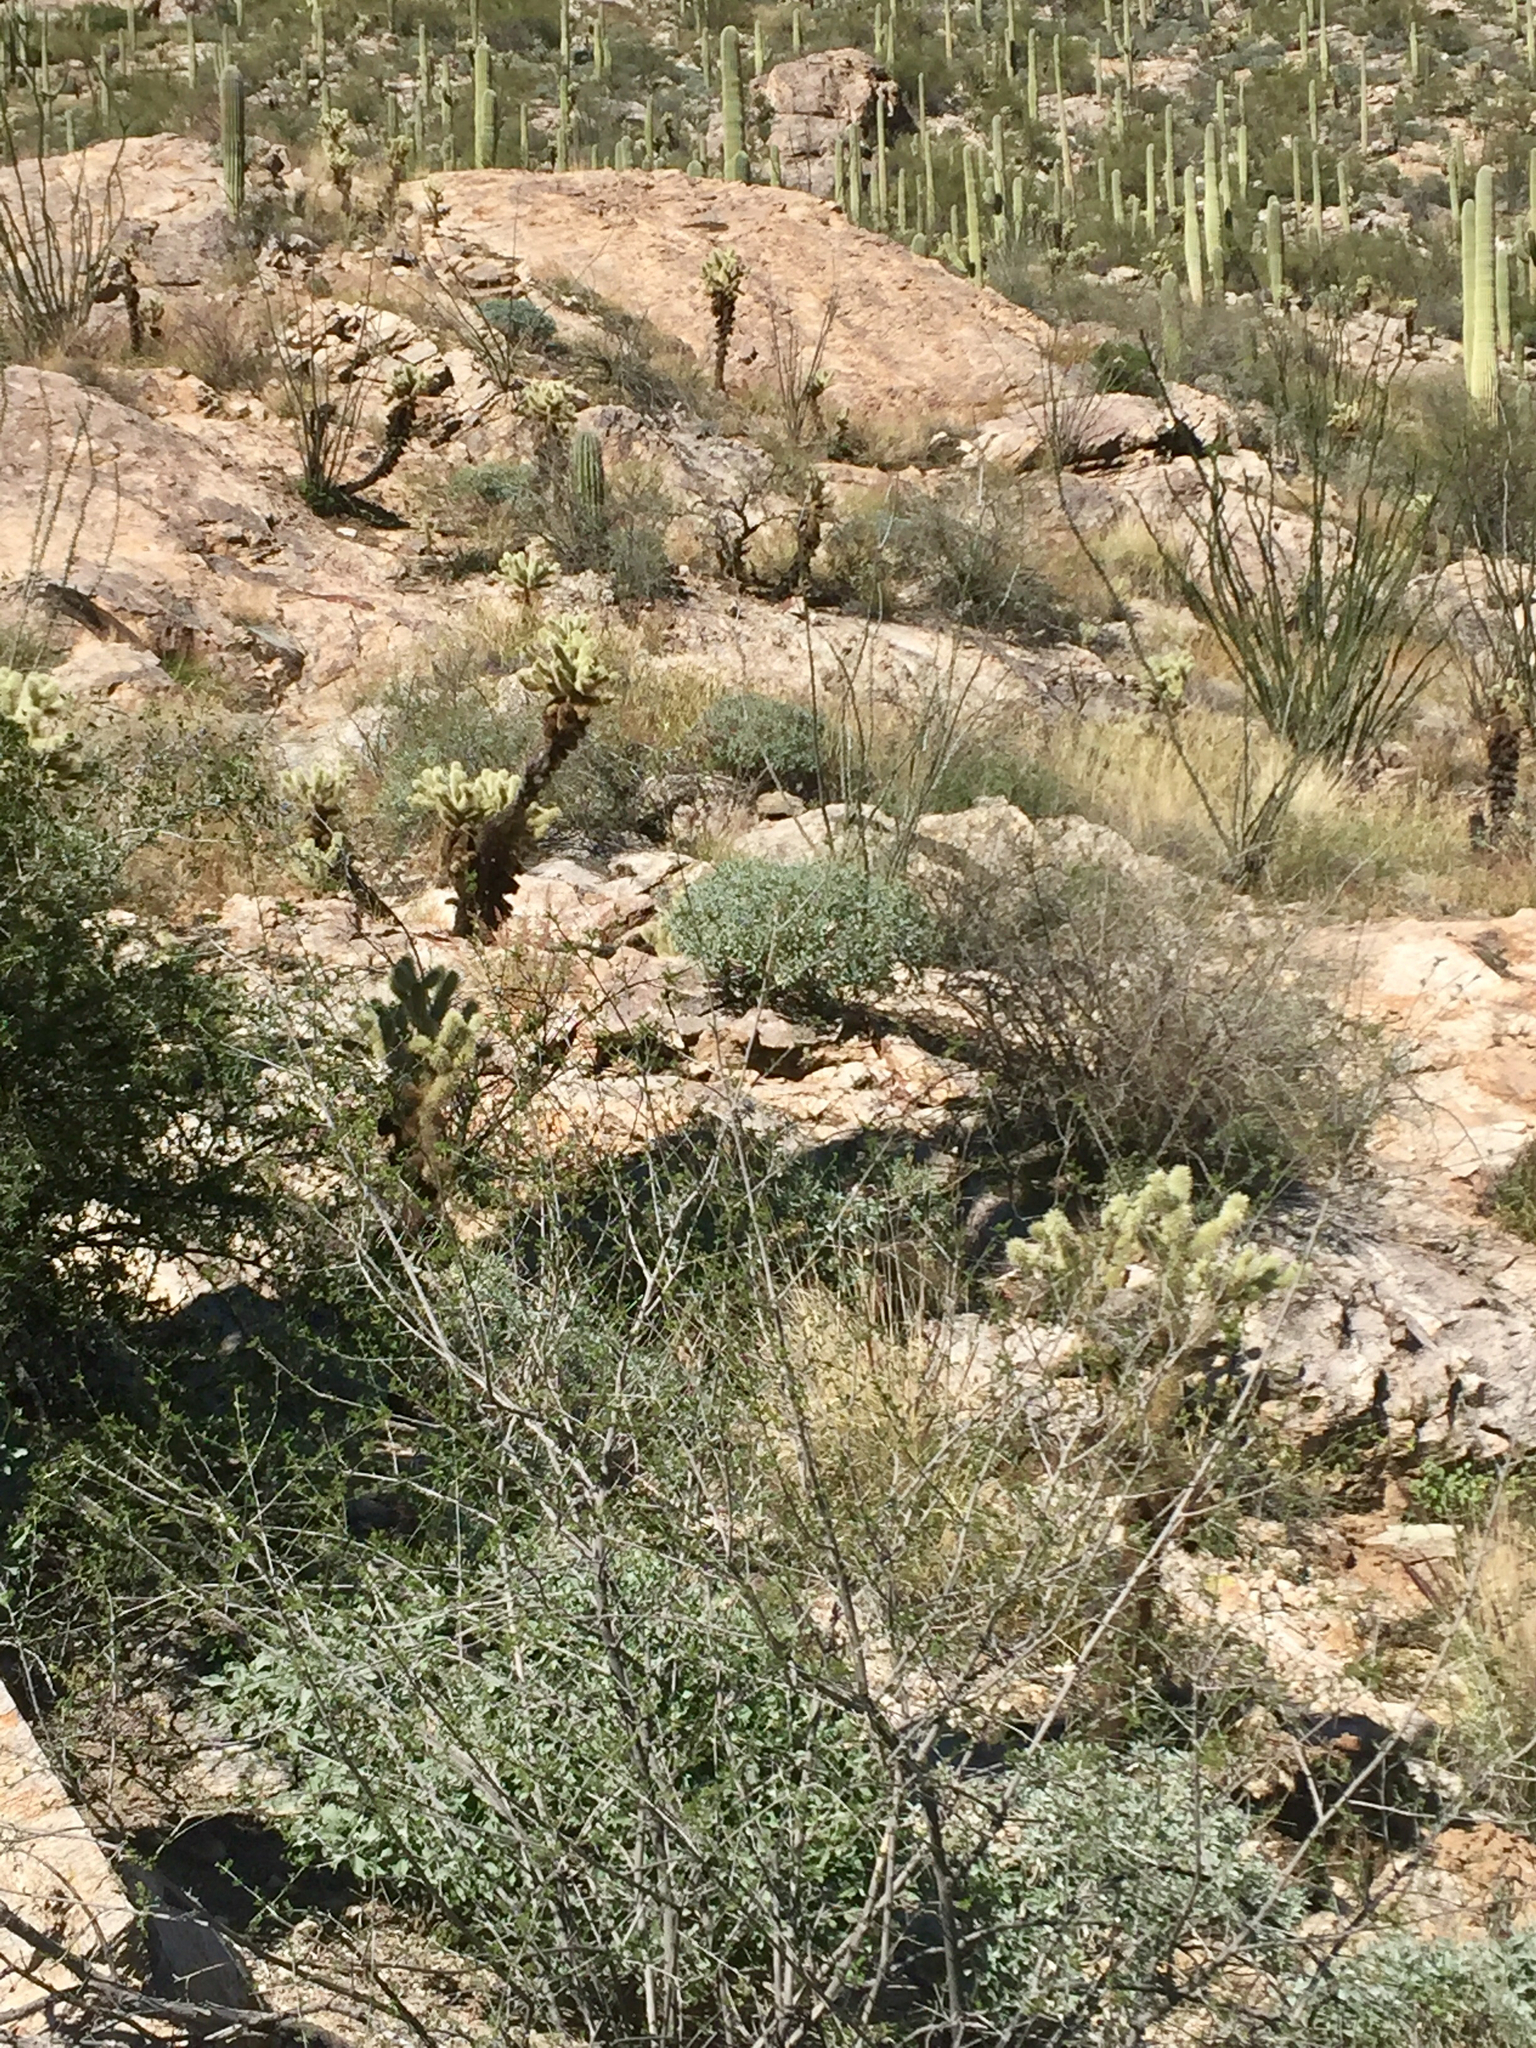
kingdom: Plantae
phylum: Tracheophyta
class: Magnoliopsida
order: Caryophyllales
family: Cactaceae
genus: Cylindropuntia
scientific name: Cylindropuntia fosbergii
